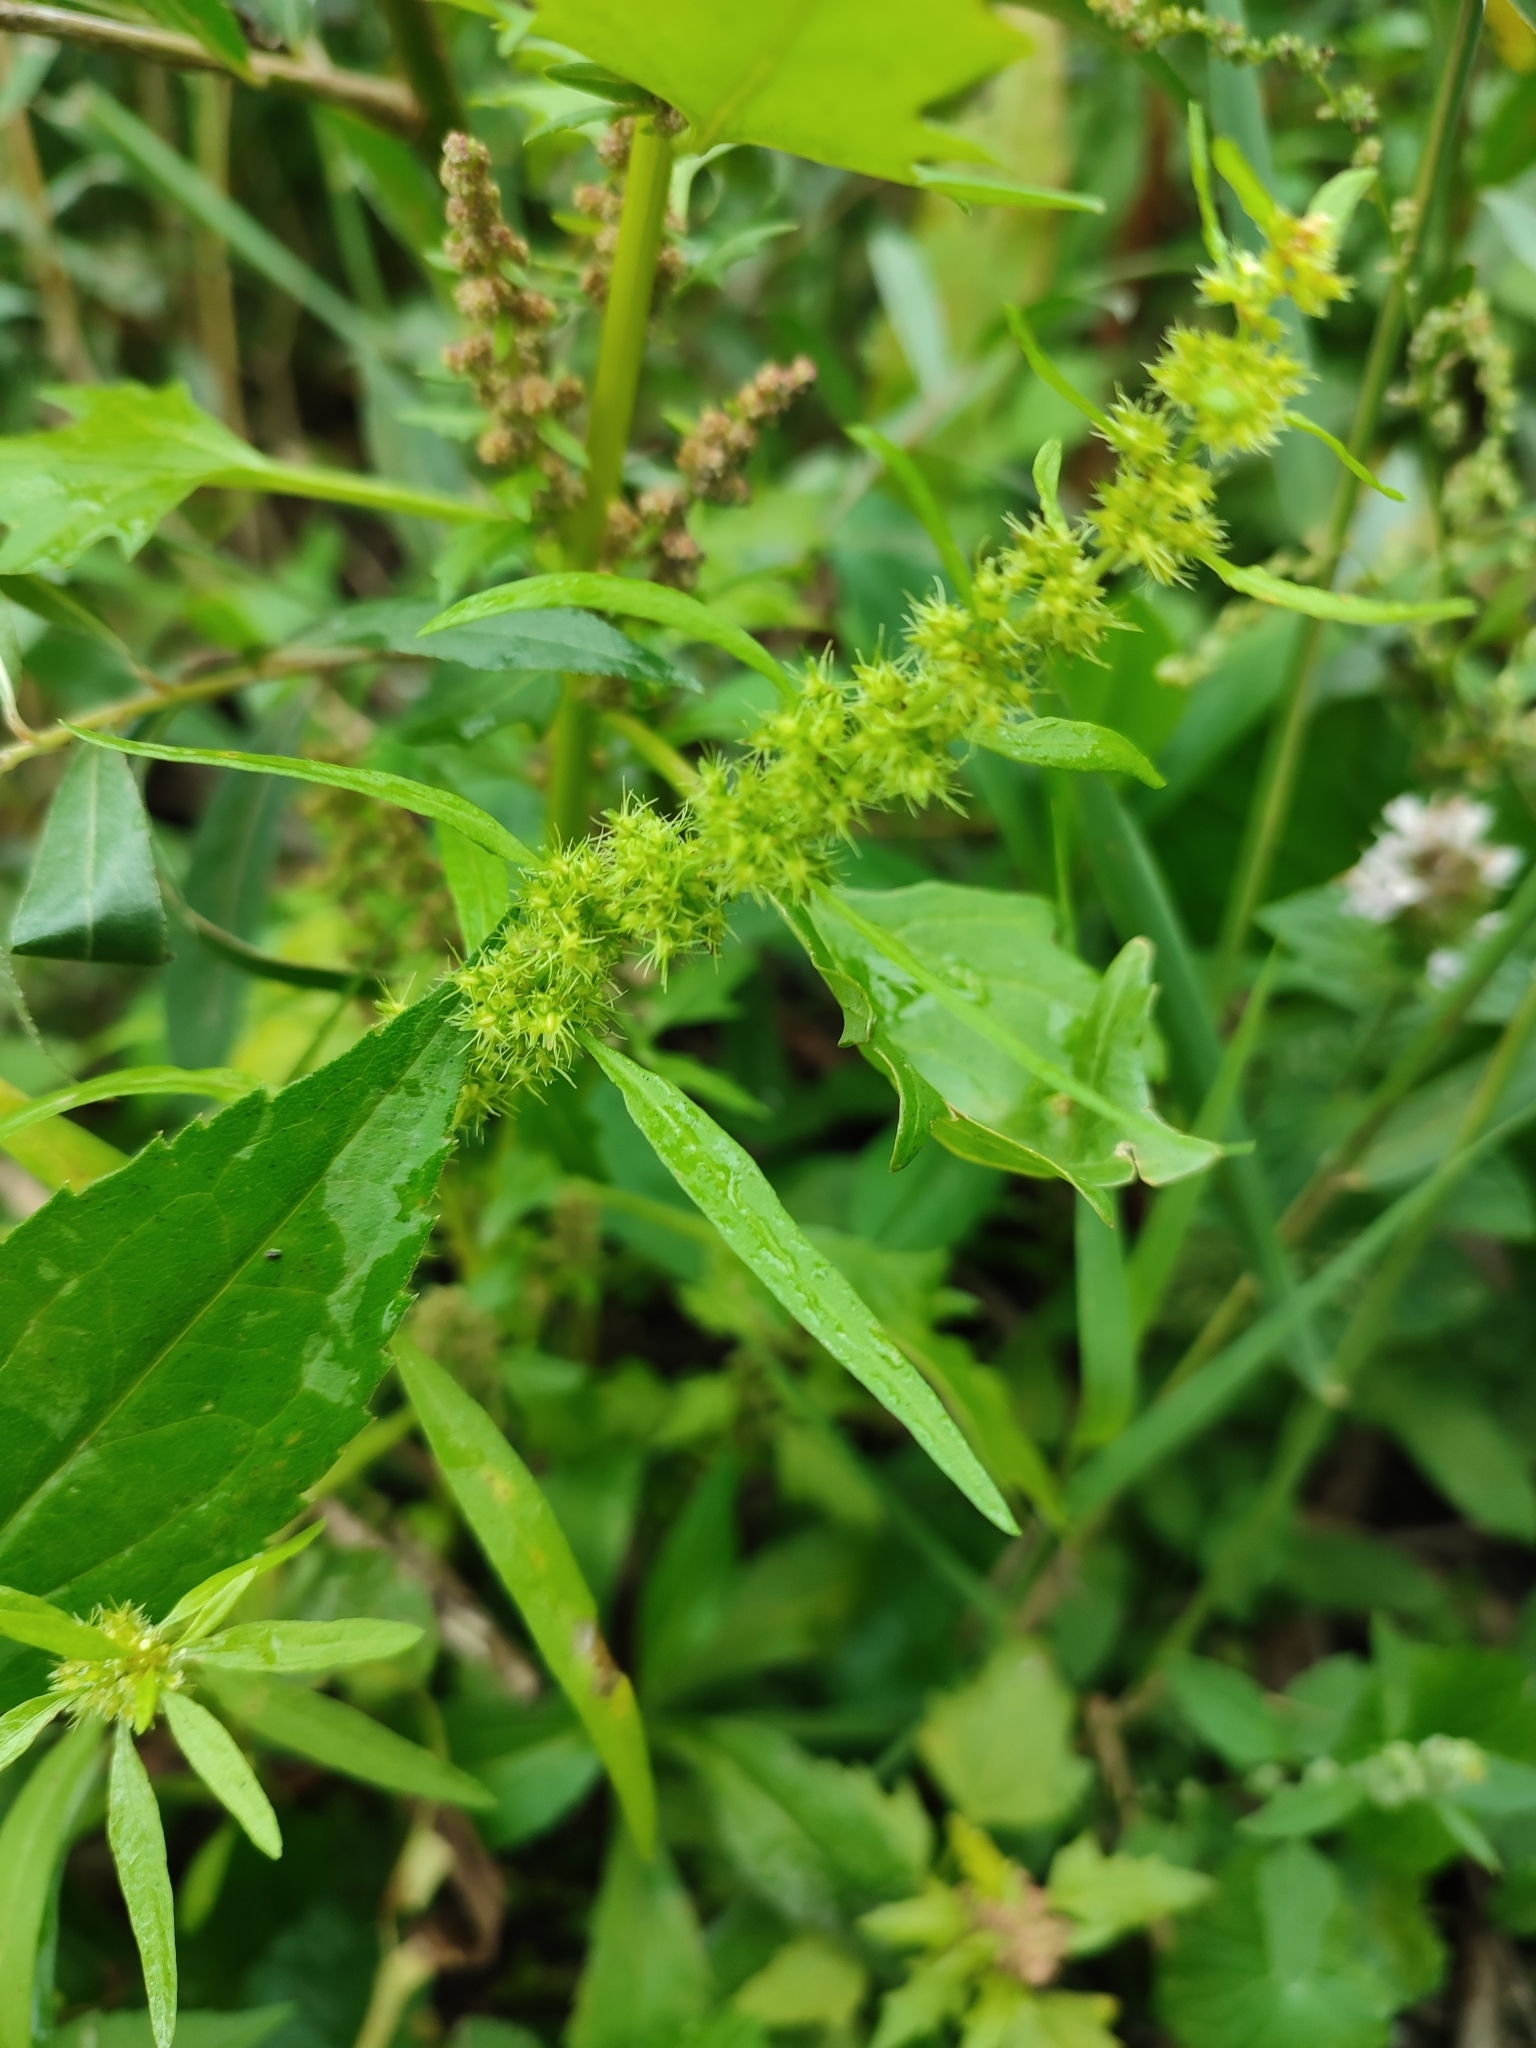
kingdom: Plantae
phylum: Tracheophyta
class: Magnoliopsida
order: Caryophyllales
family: Polygonaceae
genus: Rumex
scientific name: Rumex maritimus
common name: Golden dock
